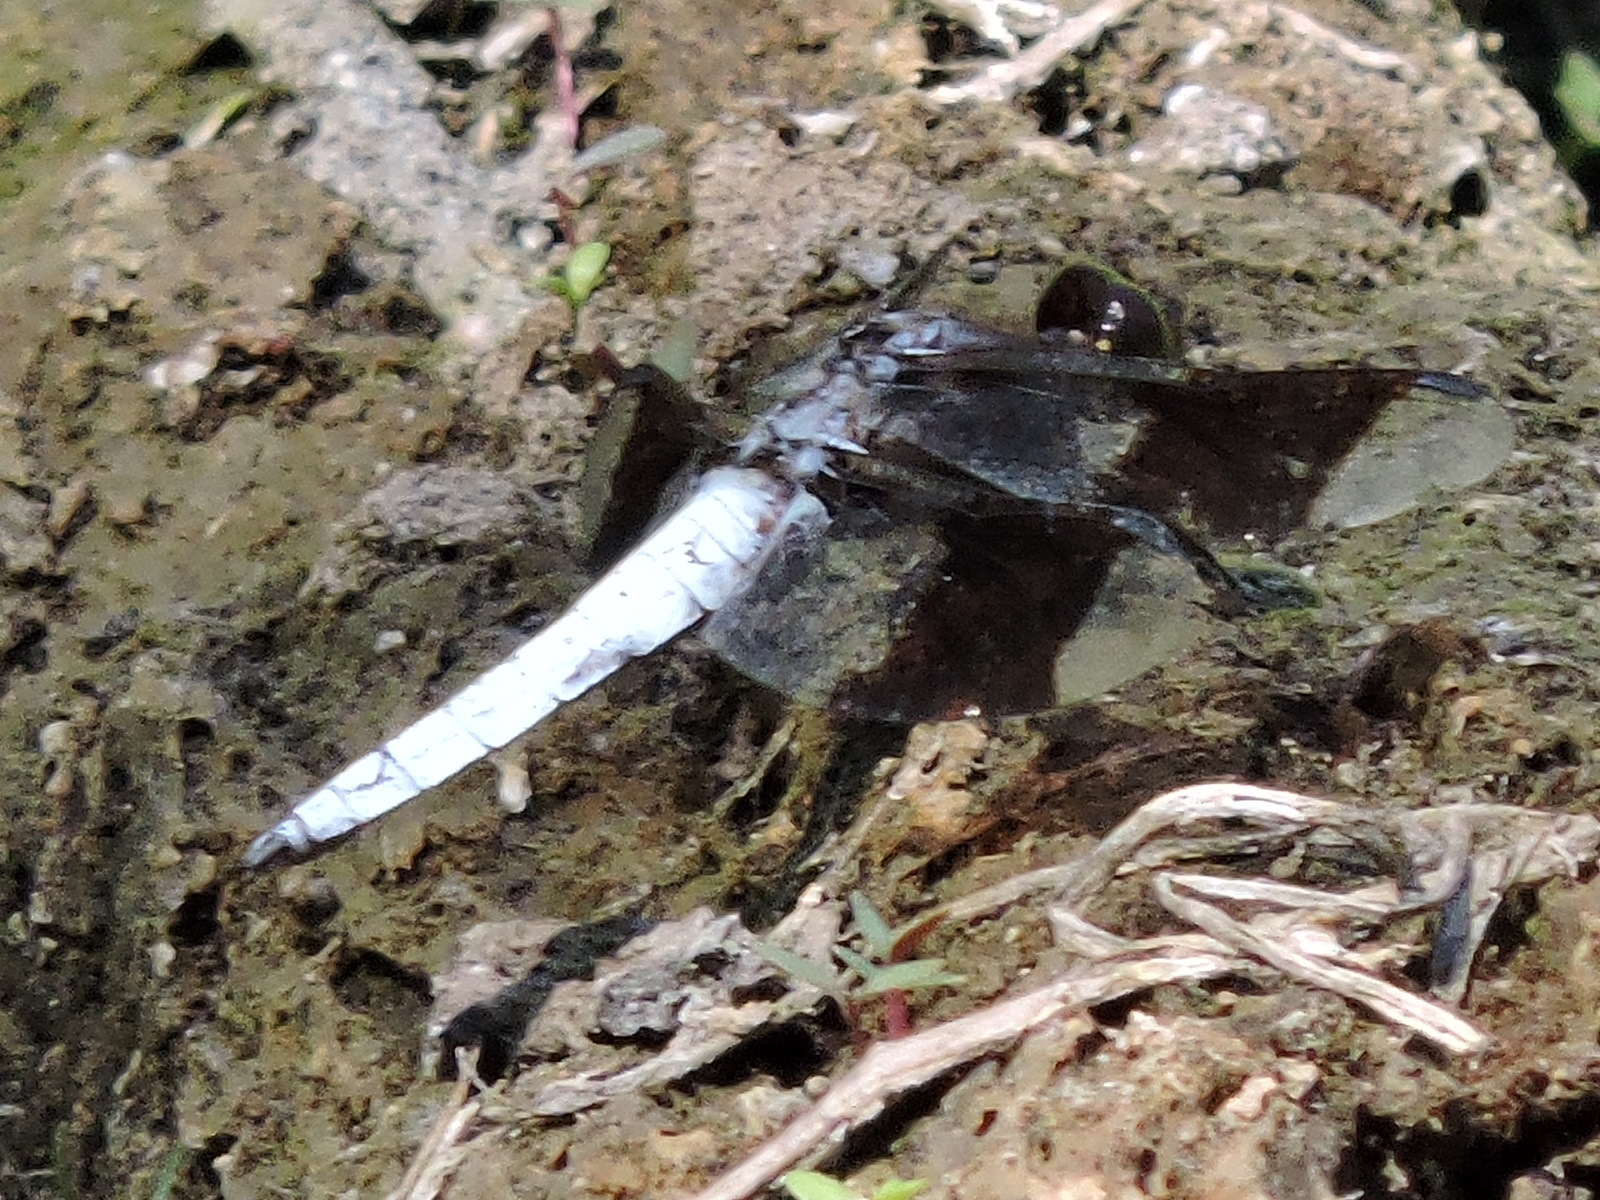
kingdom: Animalia
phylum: Arthropoda
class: Insecta
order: Odonata
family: Libellulidae
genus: Plathemis
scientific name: Plathemis lydia
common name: Common whitetail
